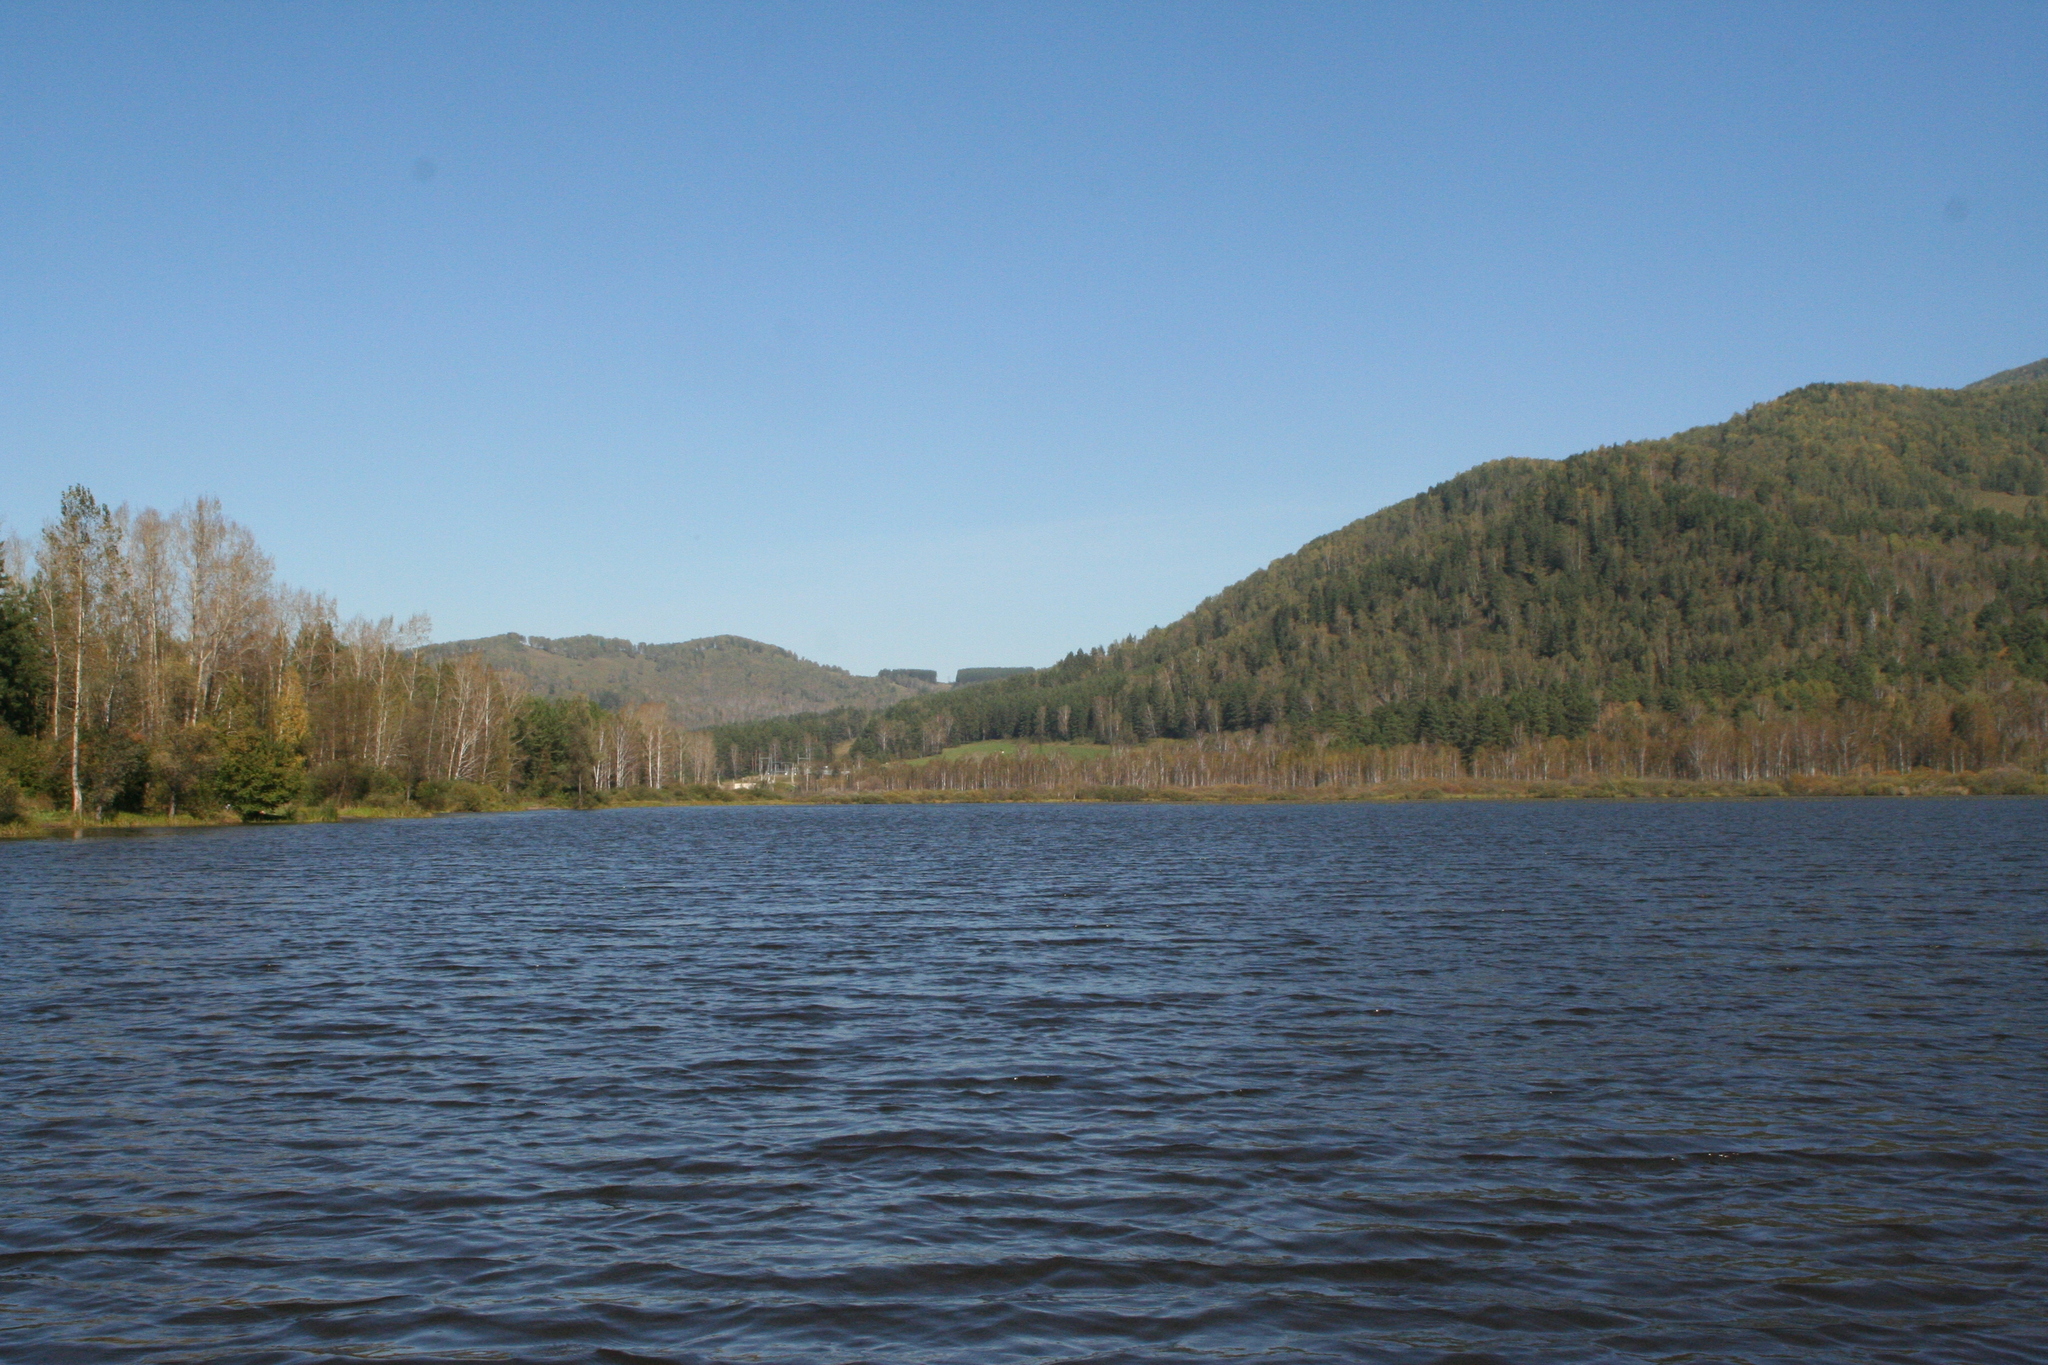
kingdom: Plantae
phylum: Tracheophyta
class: Pinopsida
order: Pinales
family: Pinaceae
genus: Pinus
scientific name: Pinus sylvestris
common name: Scots pine
